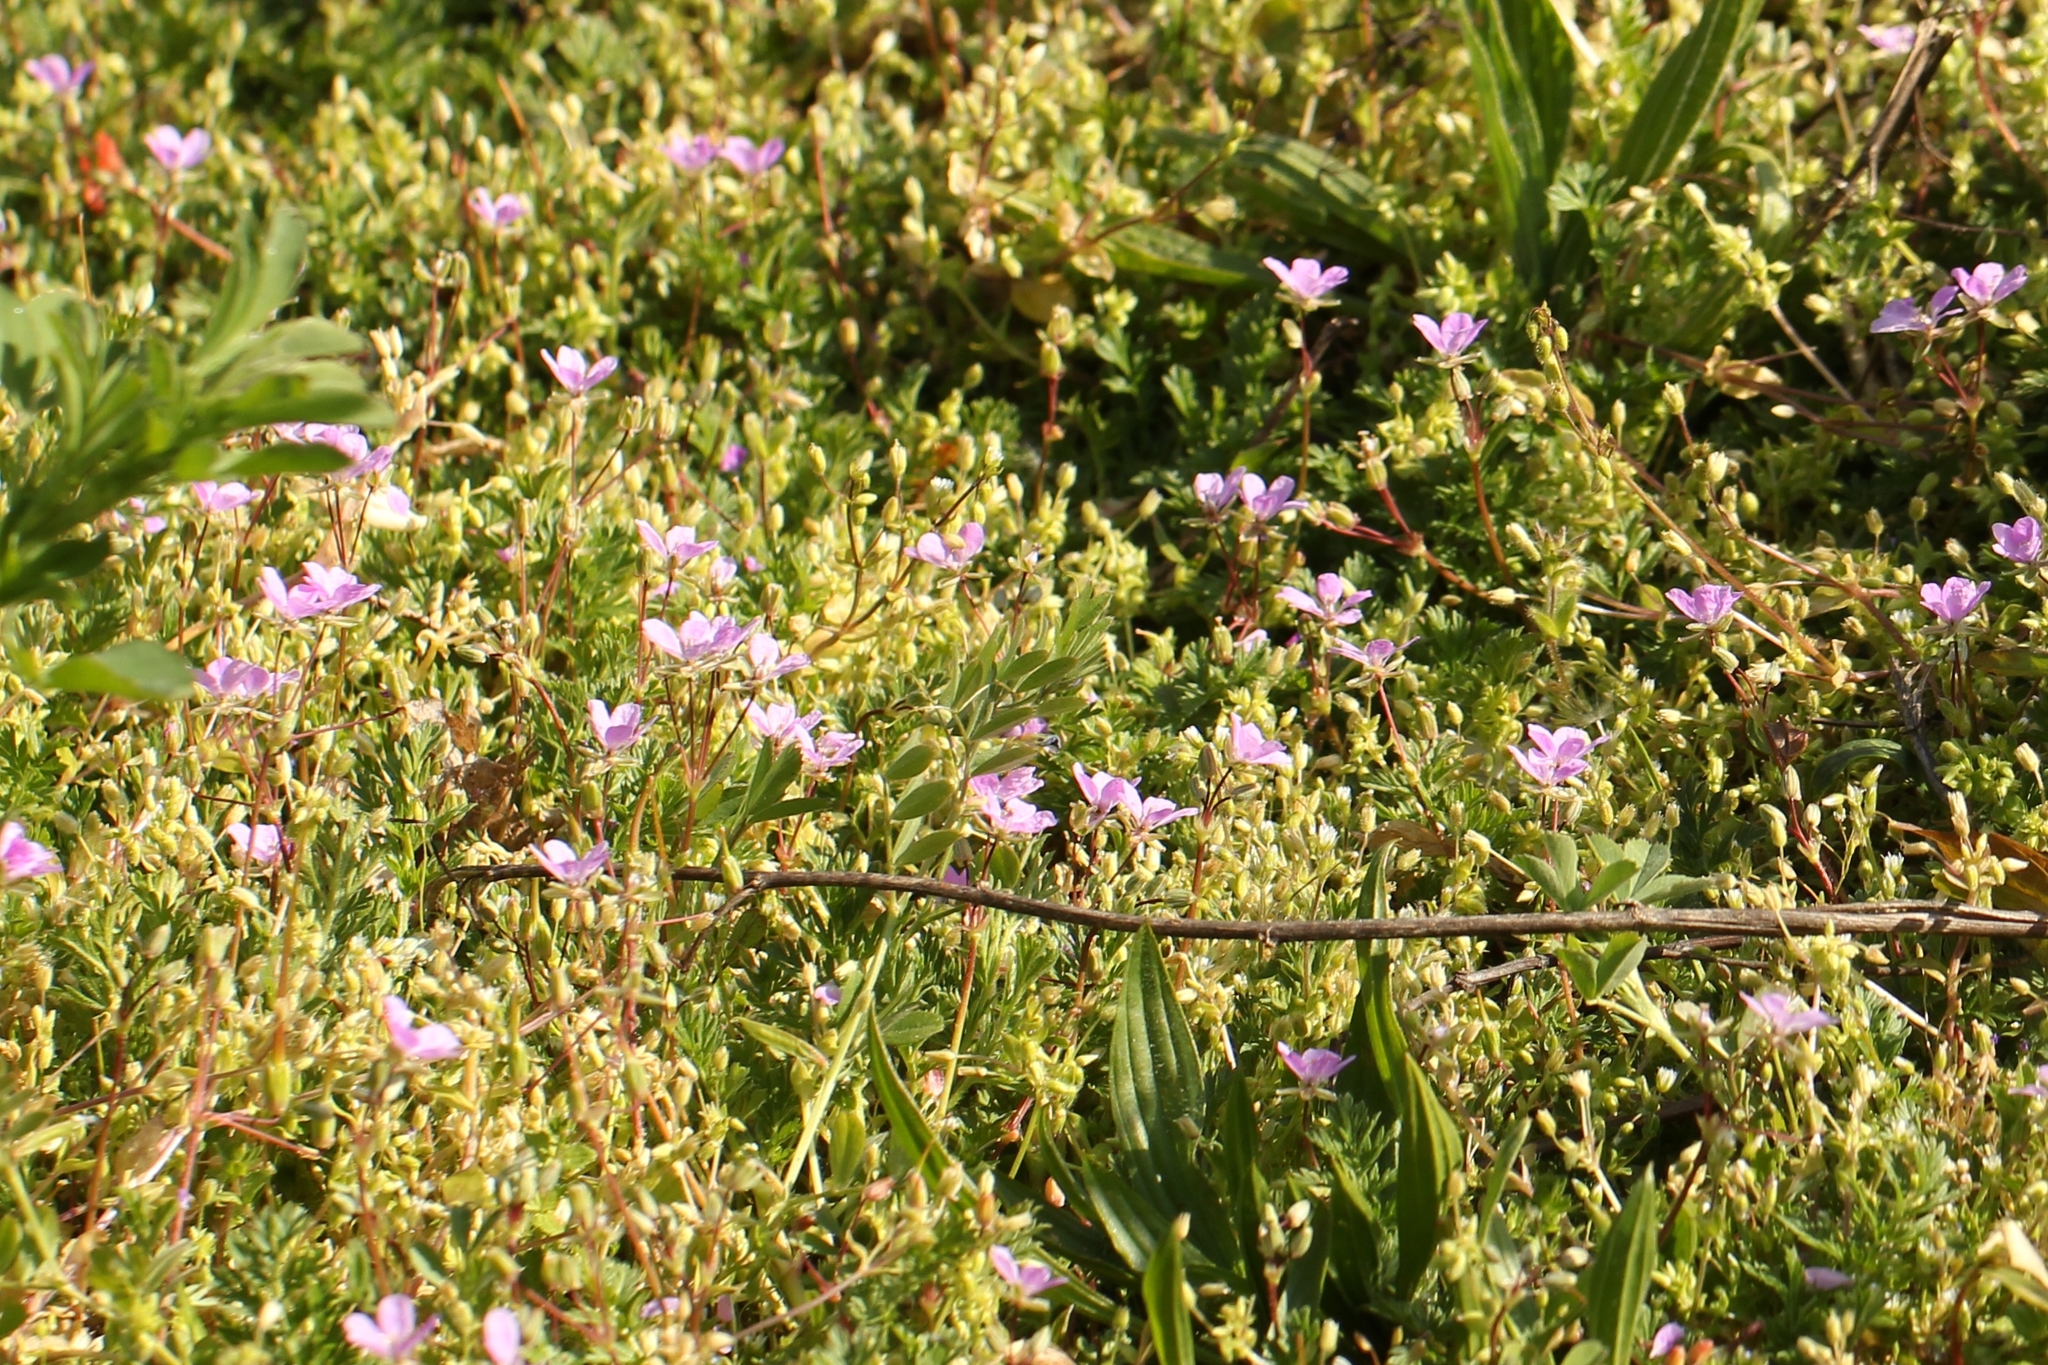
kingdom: Plantae
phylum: Tracheophyta
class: Magnoliopsida
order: Geraniales
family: Geraniaceae
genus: Erodium
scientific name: Erodium cicutarium
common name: Common stork's-bill
